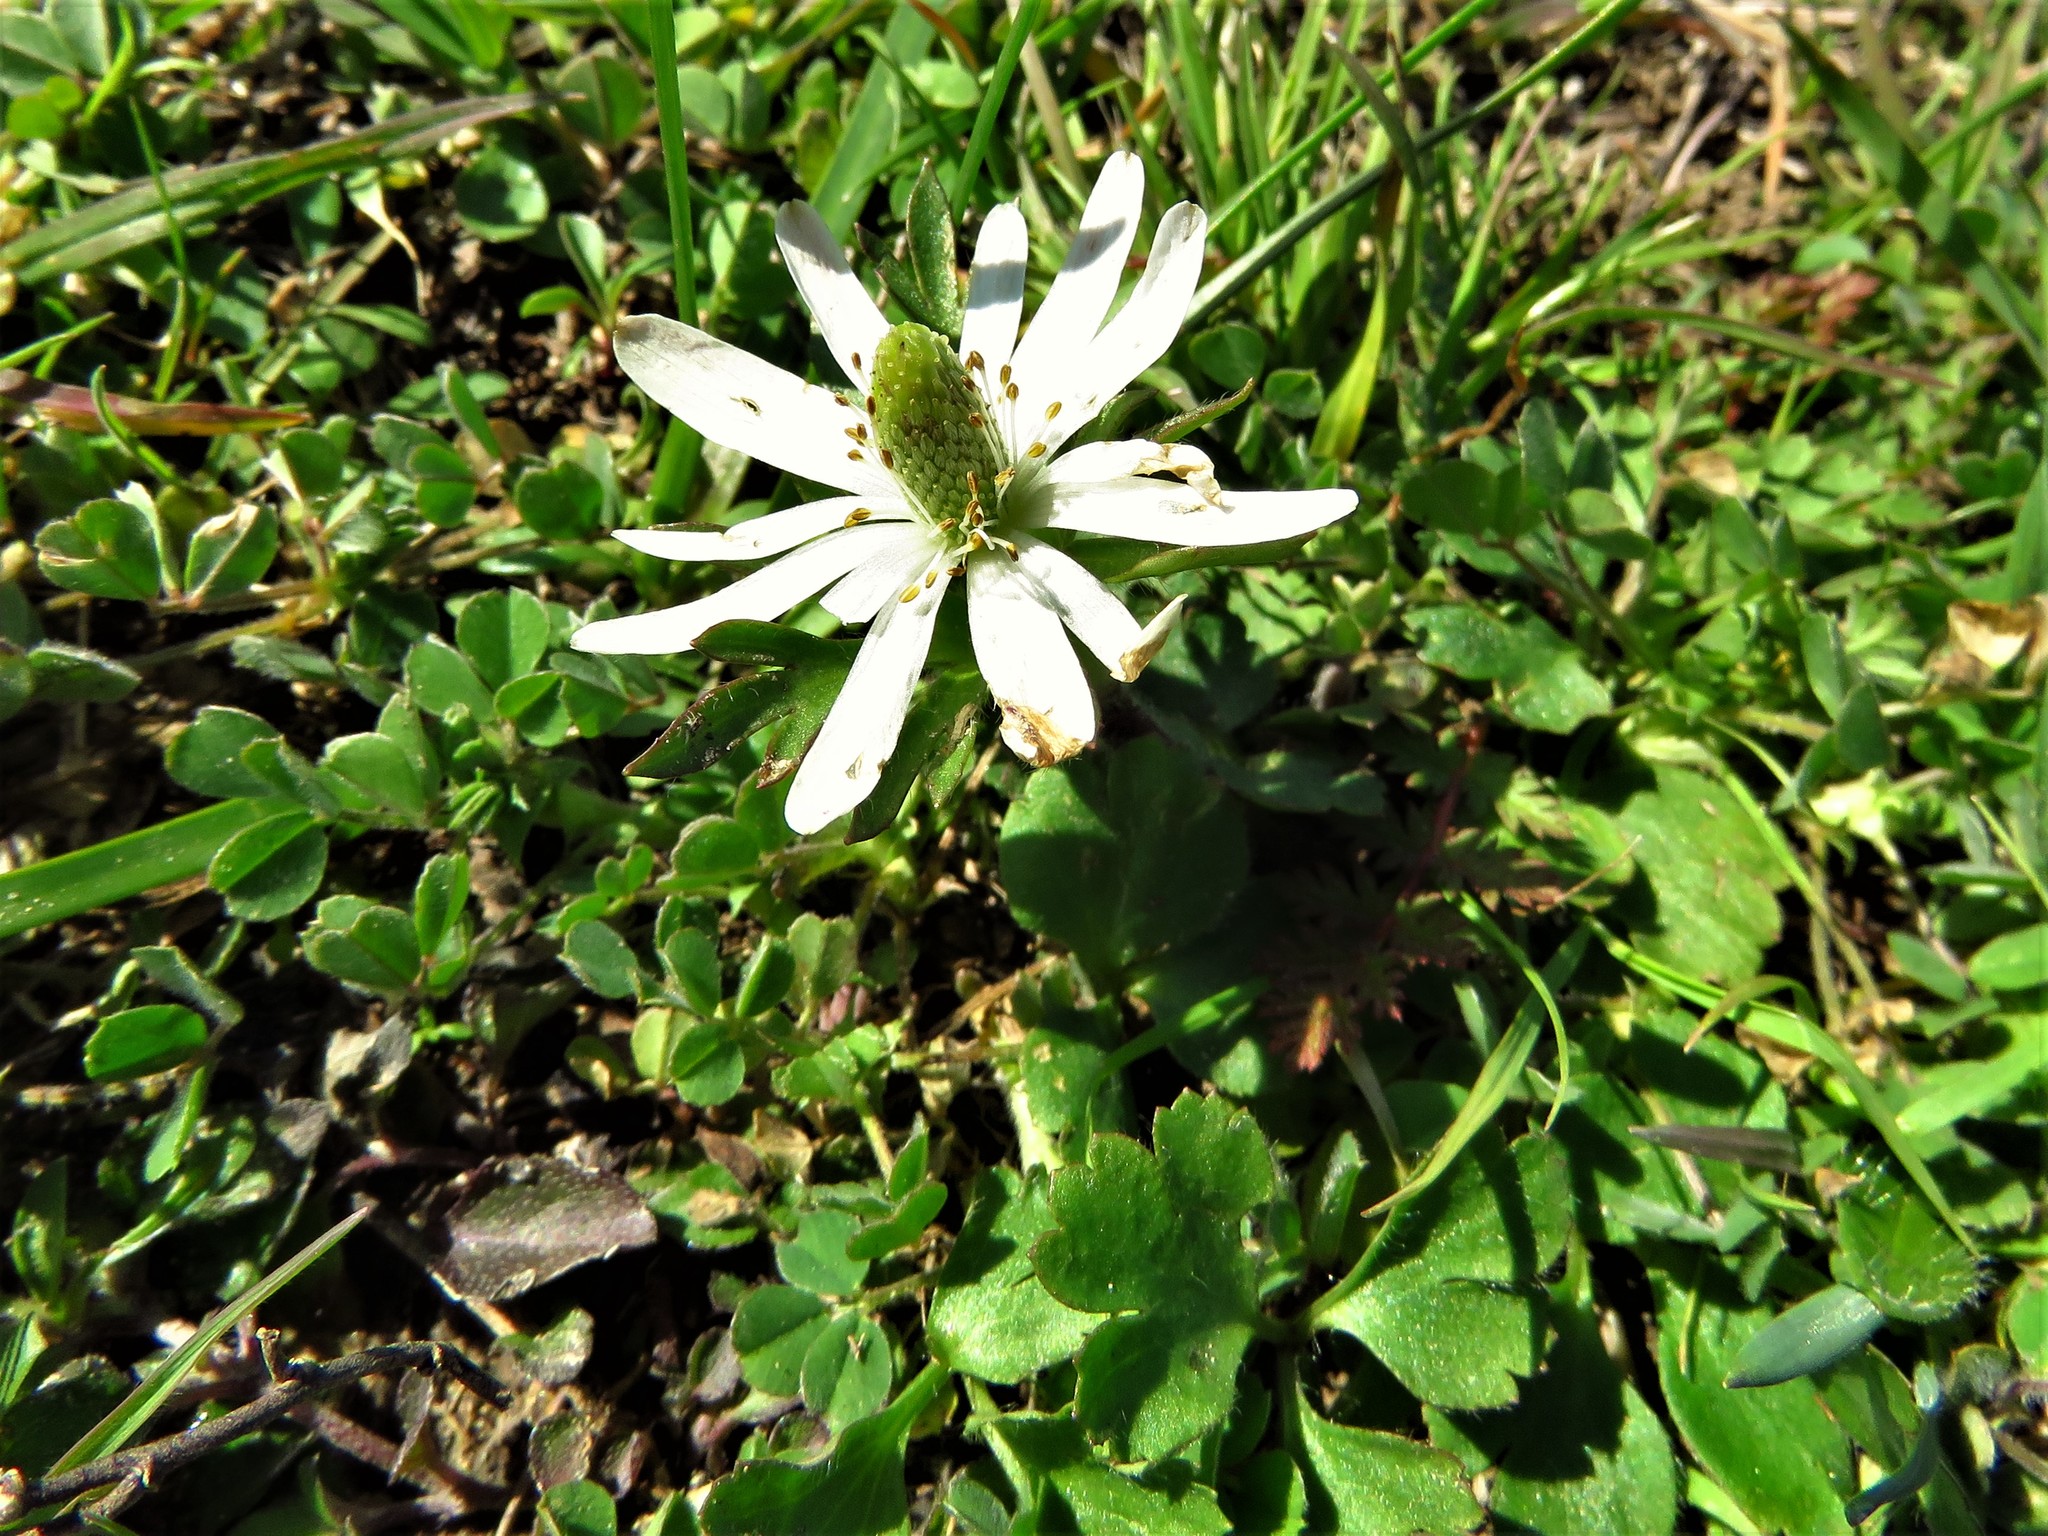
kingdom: Plantae
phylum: Tracheophyta
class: Magnoliopsida
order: Ranunculales
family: Ranunculaceae
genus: Anemone
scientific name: Anemone berlandieri
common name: Ten-petal anemone
